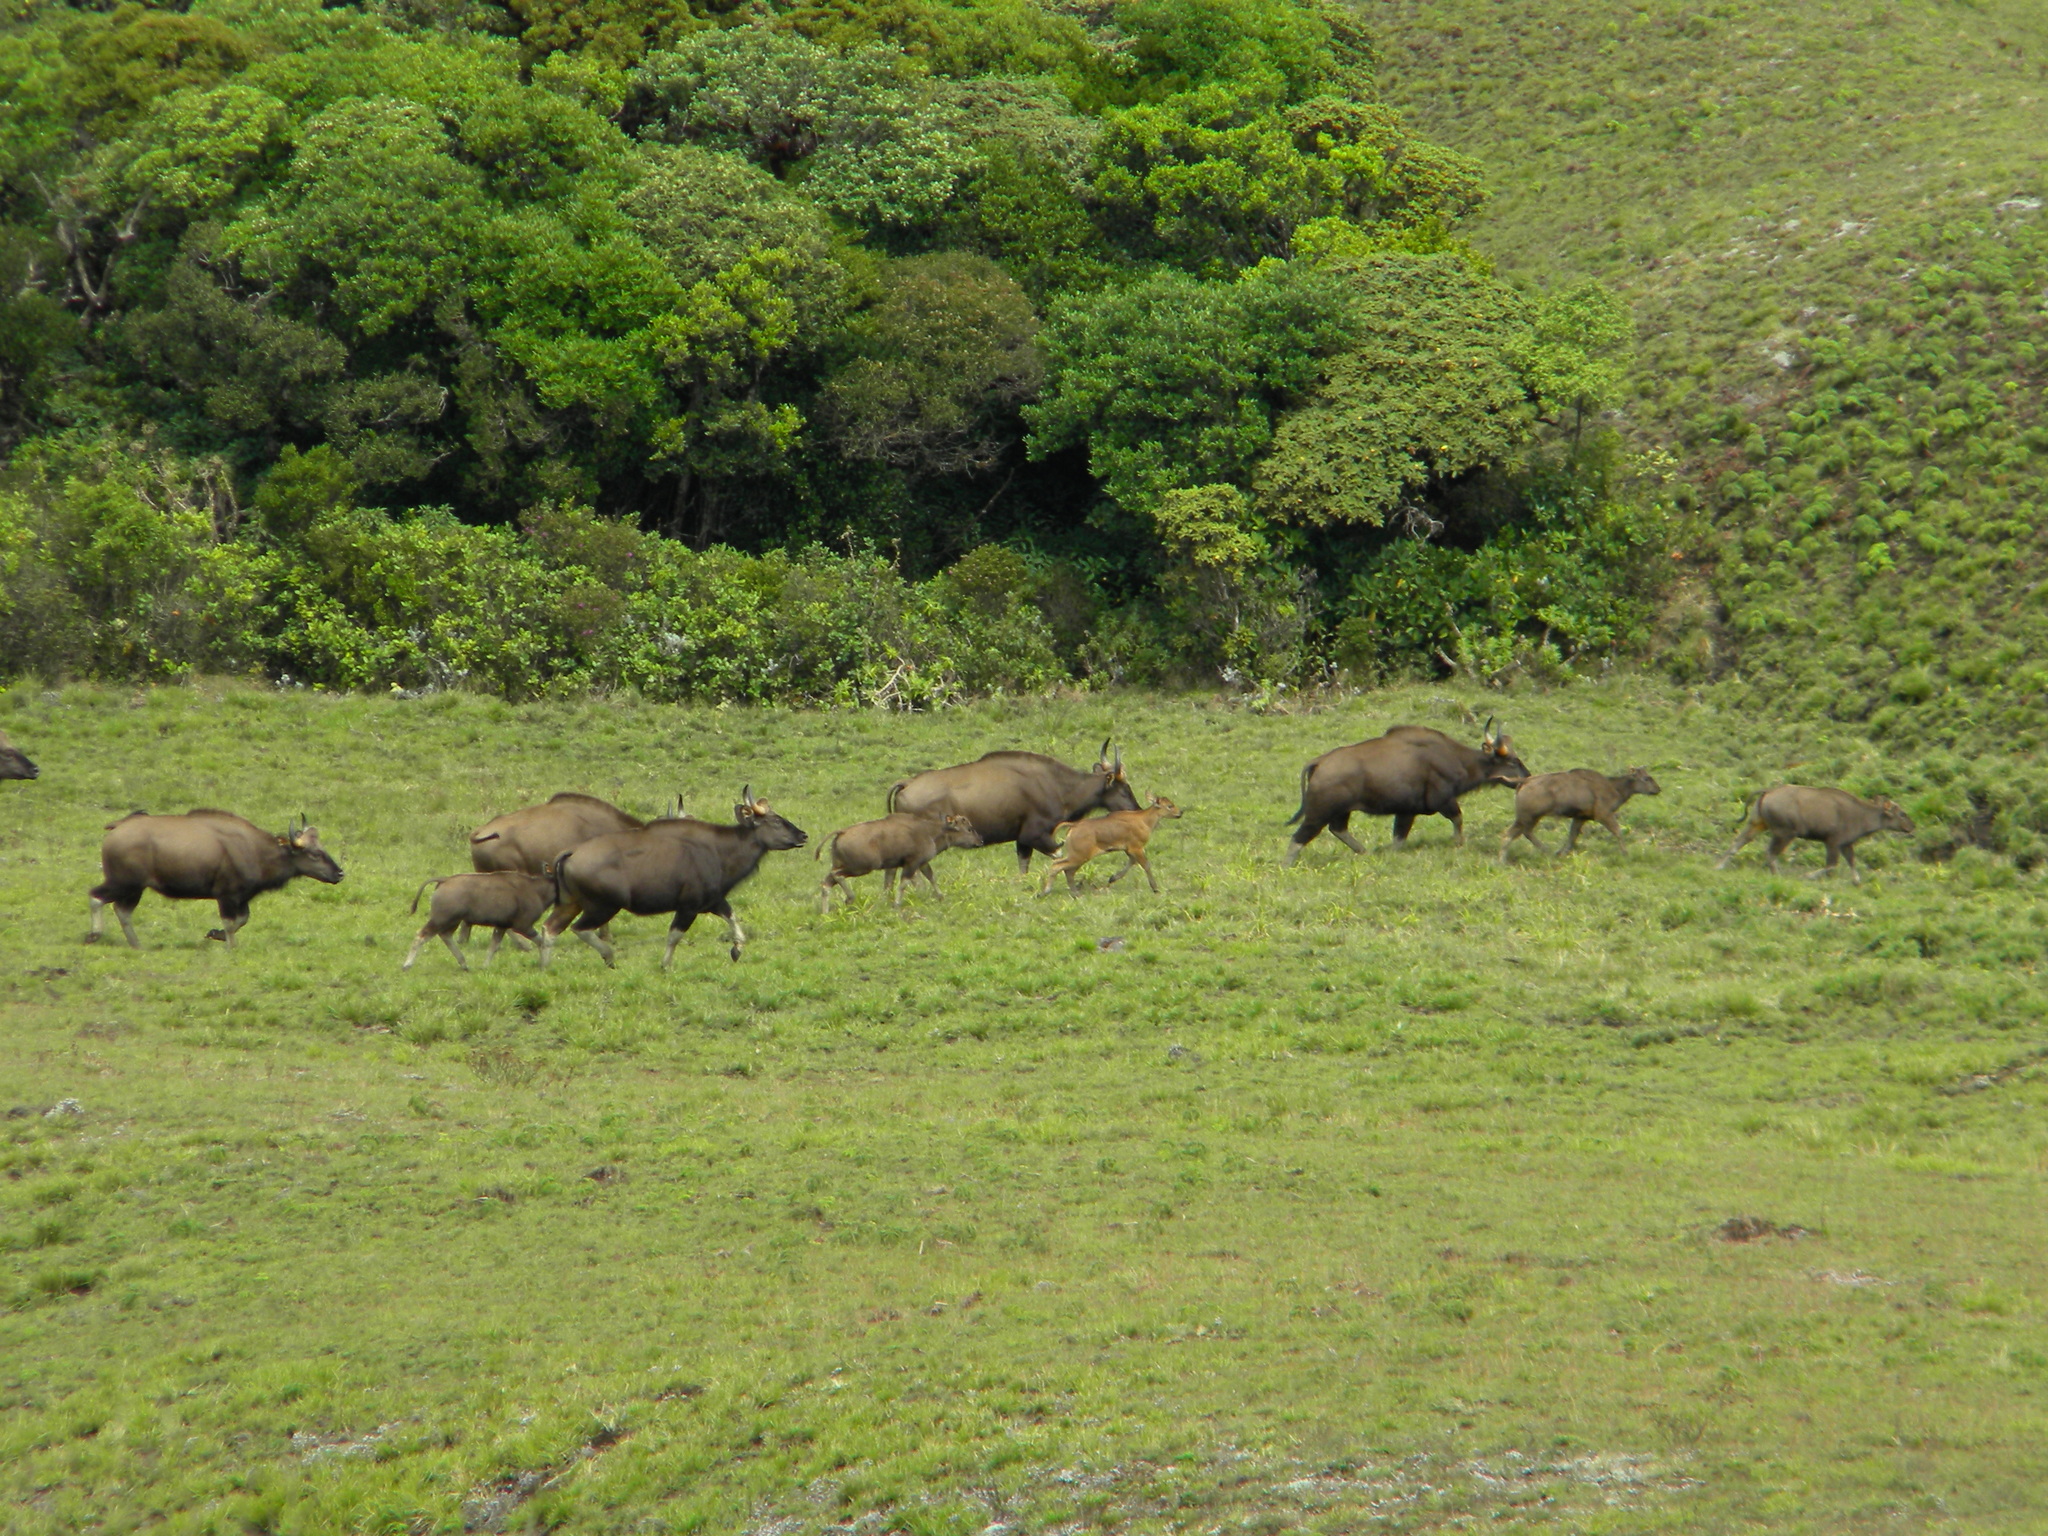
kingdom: Animalia
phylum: Chordata
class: Mammalia
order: Artiodactyla
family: Bovidae
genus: Bos
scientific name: Bos frontalis
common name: Gaur
